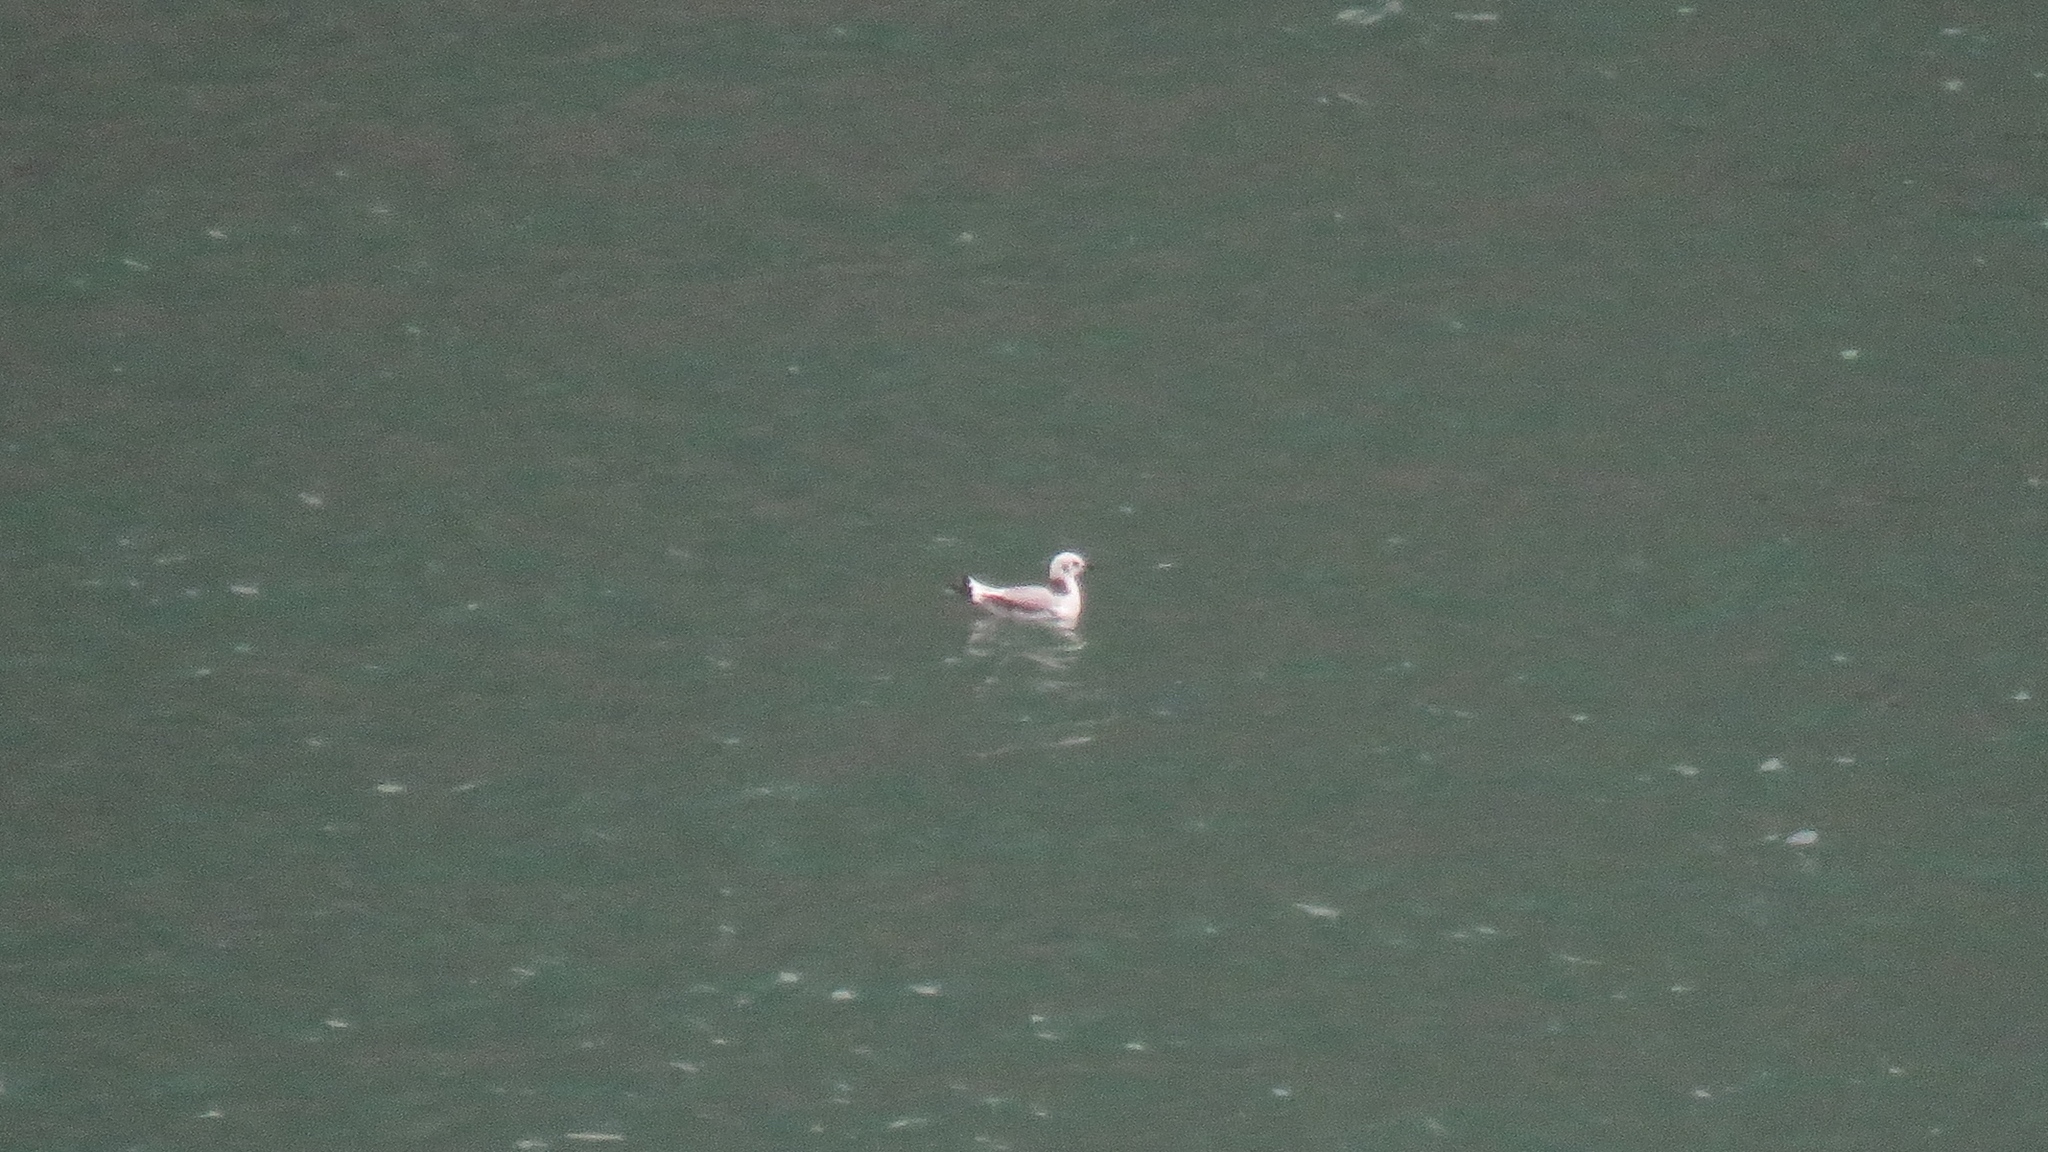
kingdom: Animalia
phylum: Chordata
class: Aves
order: Charadriiformes
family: Laridae
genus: Rissa
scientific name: Rissa tridactyla
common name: Black-legged kittiwake
